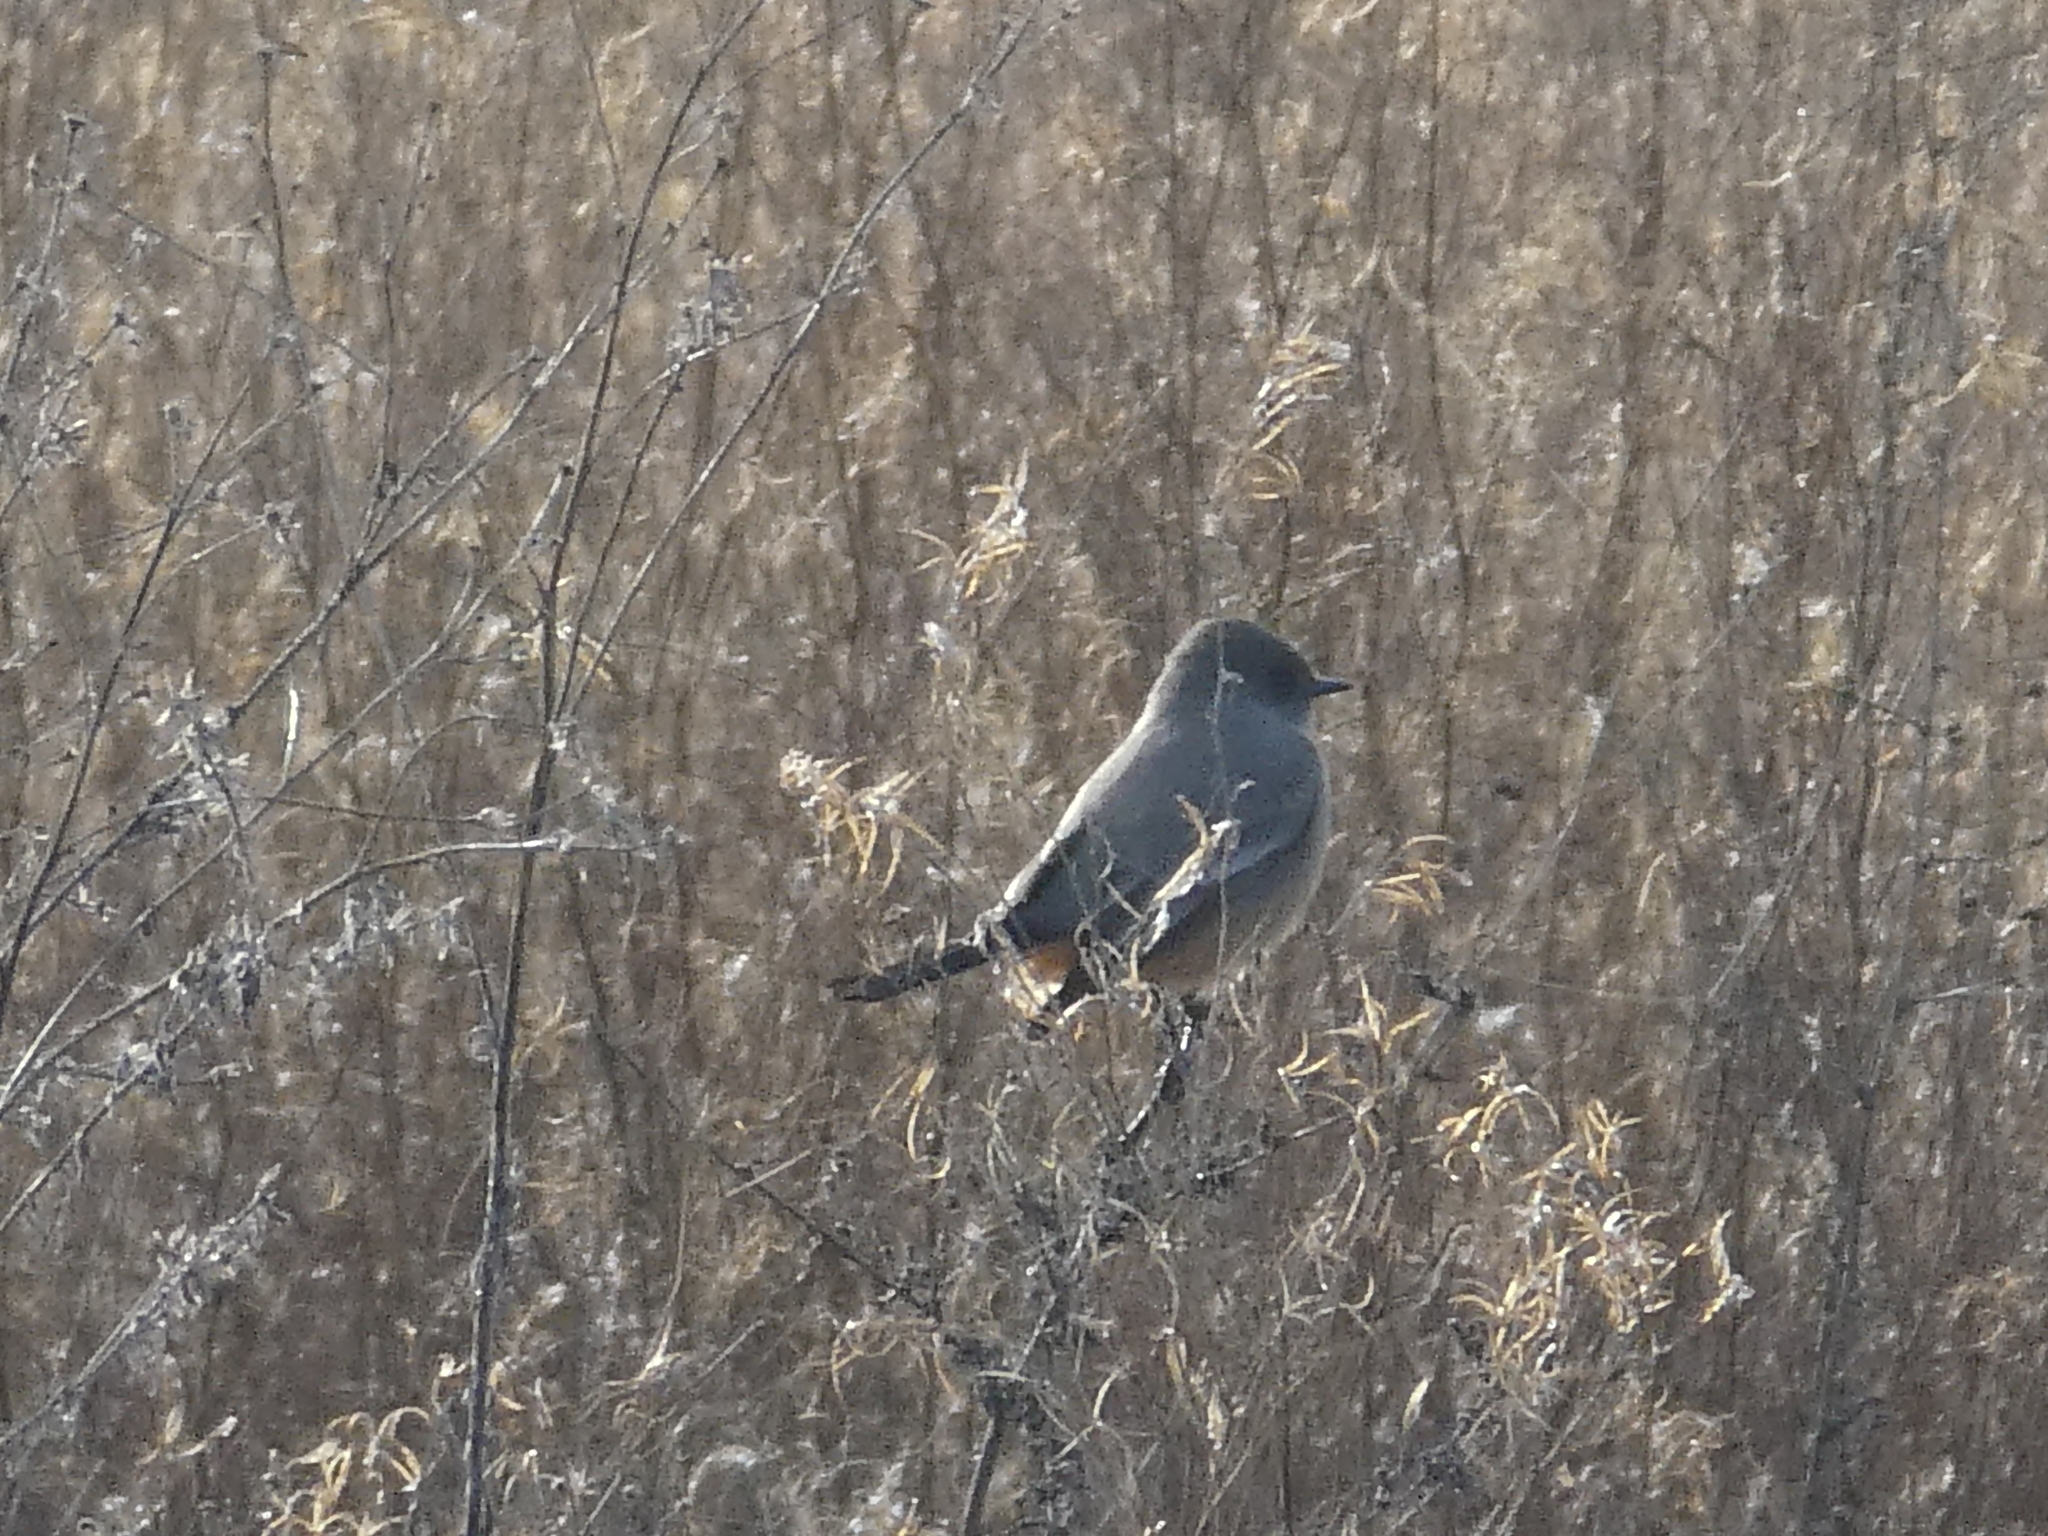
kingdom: Animalia
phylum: Chordata
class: Aves
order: Passeriformes
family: Tyrannidae
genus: Sayornis
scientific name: Sayornis saya
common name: Say's phoebe
